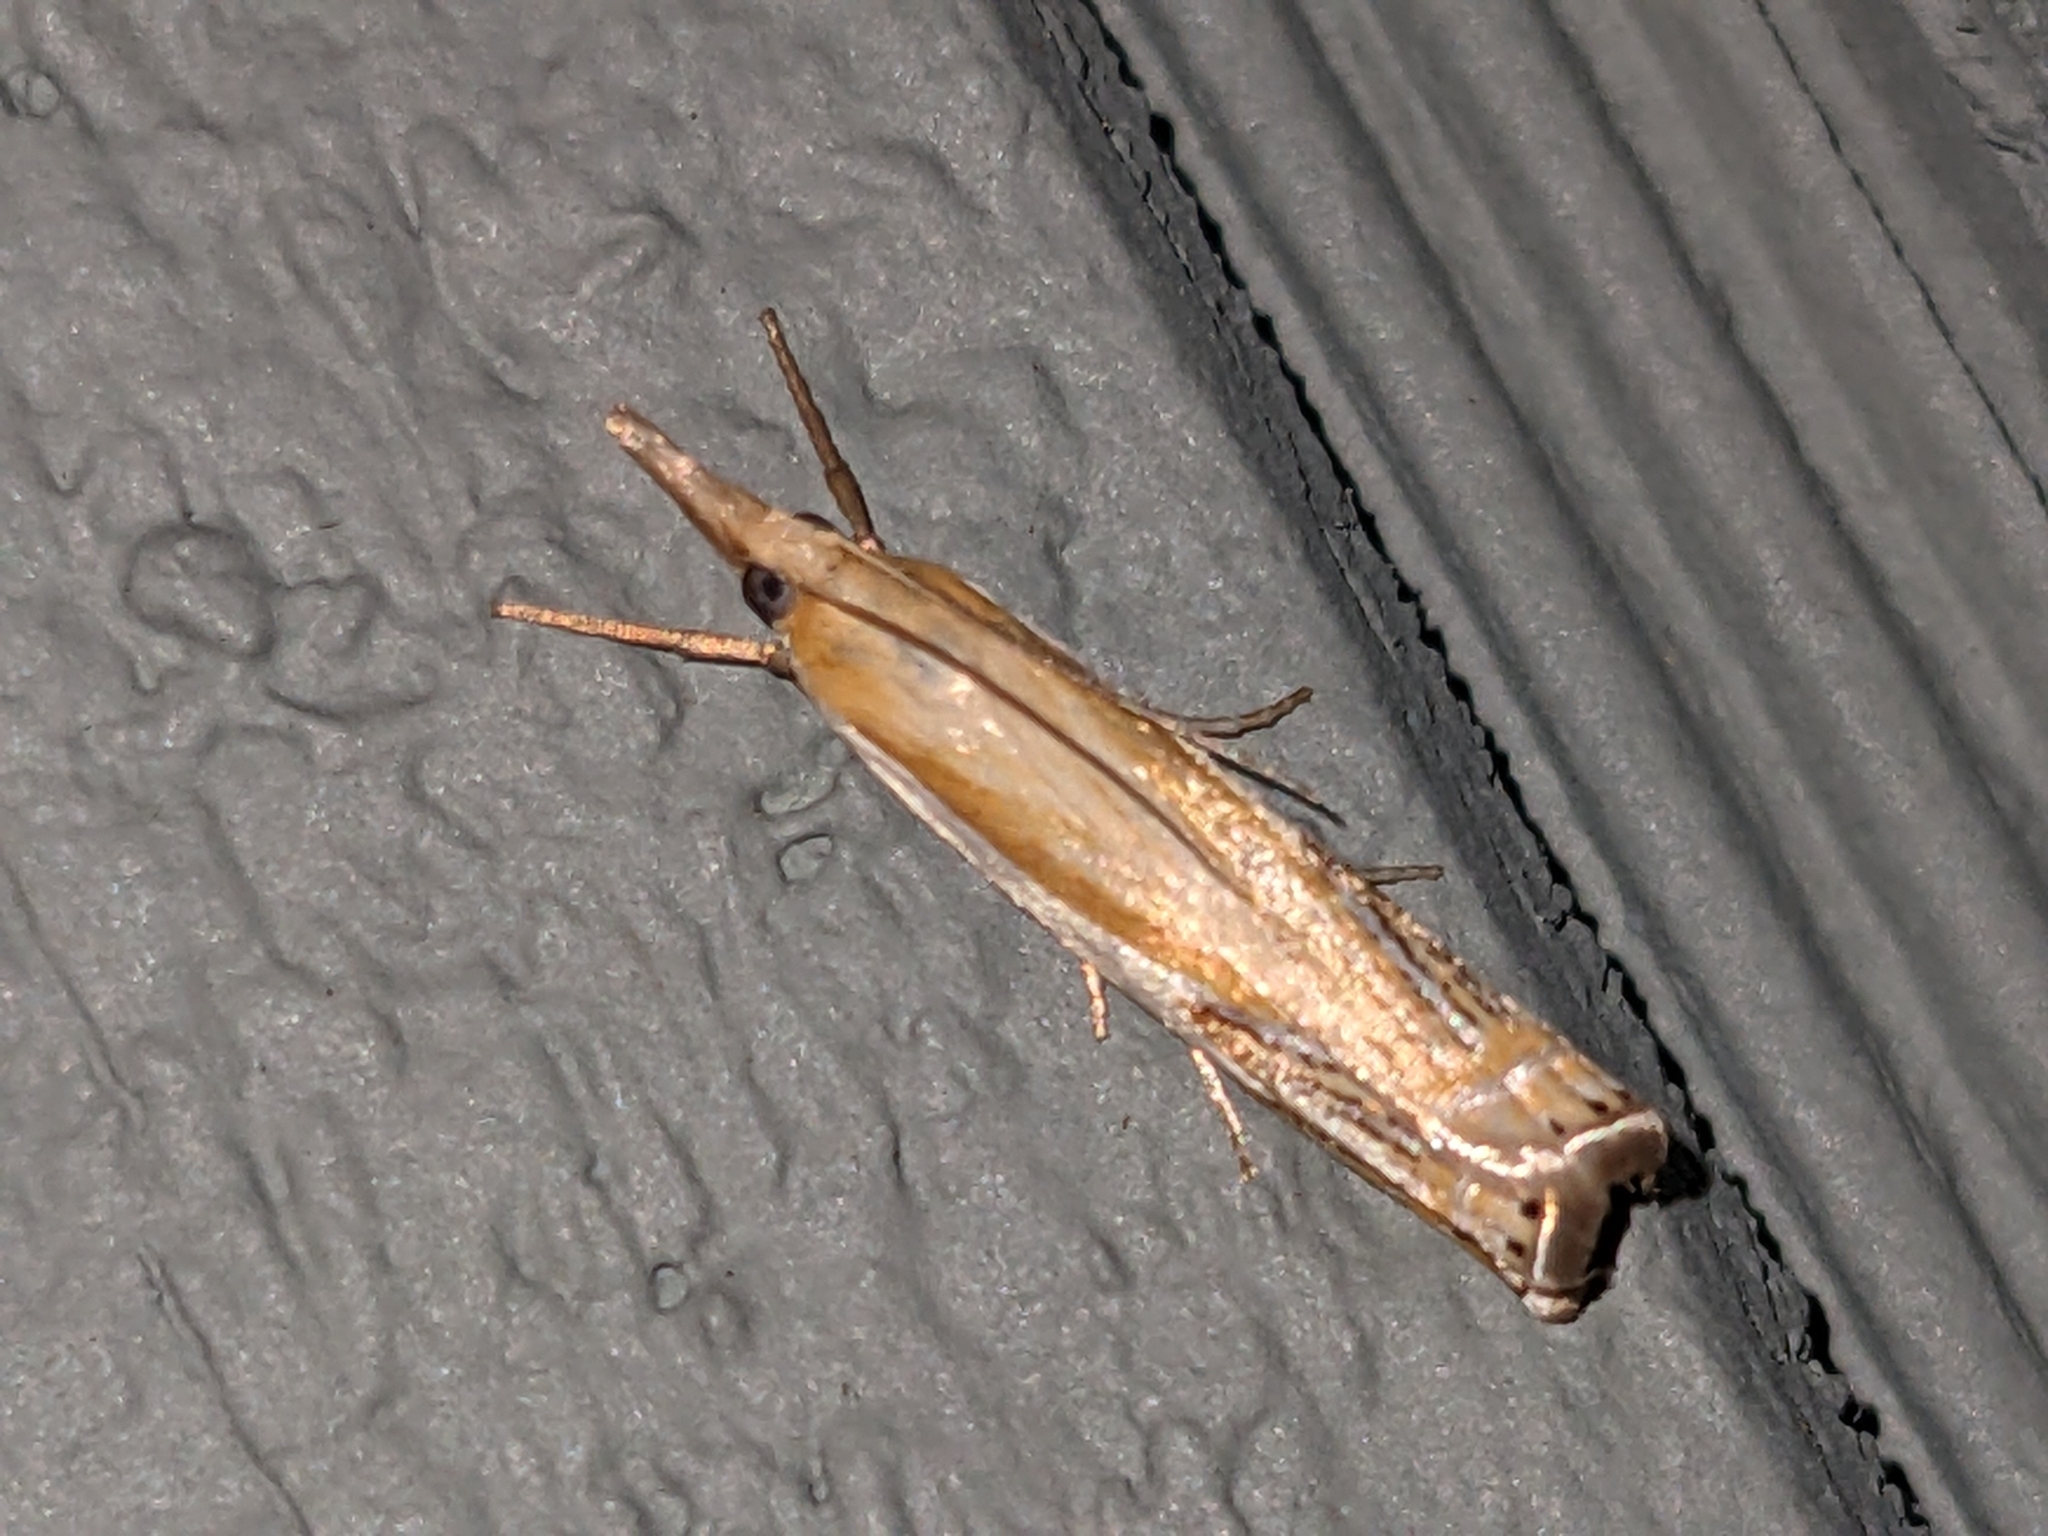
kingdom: Animalia
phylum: Arthropoda
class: Insecta
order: Lepidoptera
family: Crambidae
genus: Crambus
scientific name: Crambus agitatellus
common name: Double-banded grass-veneer
